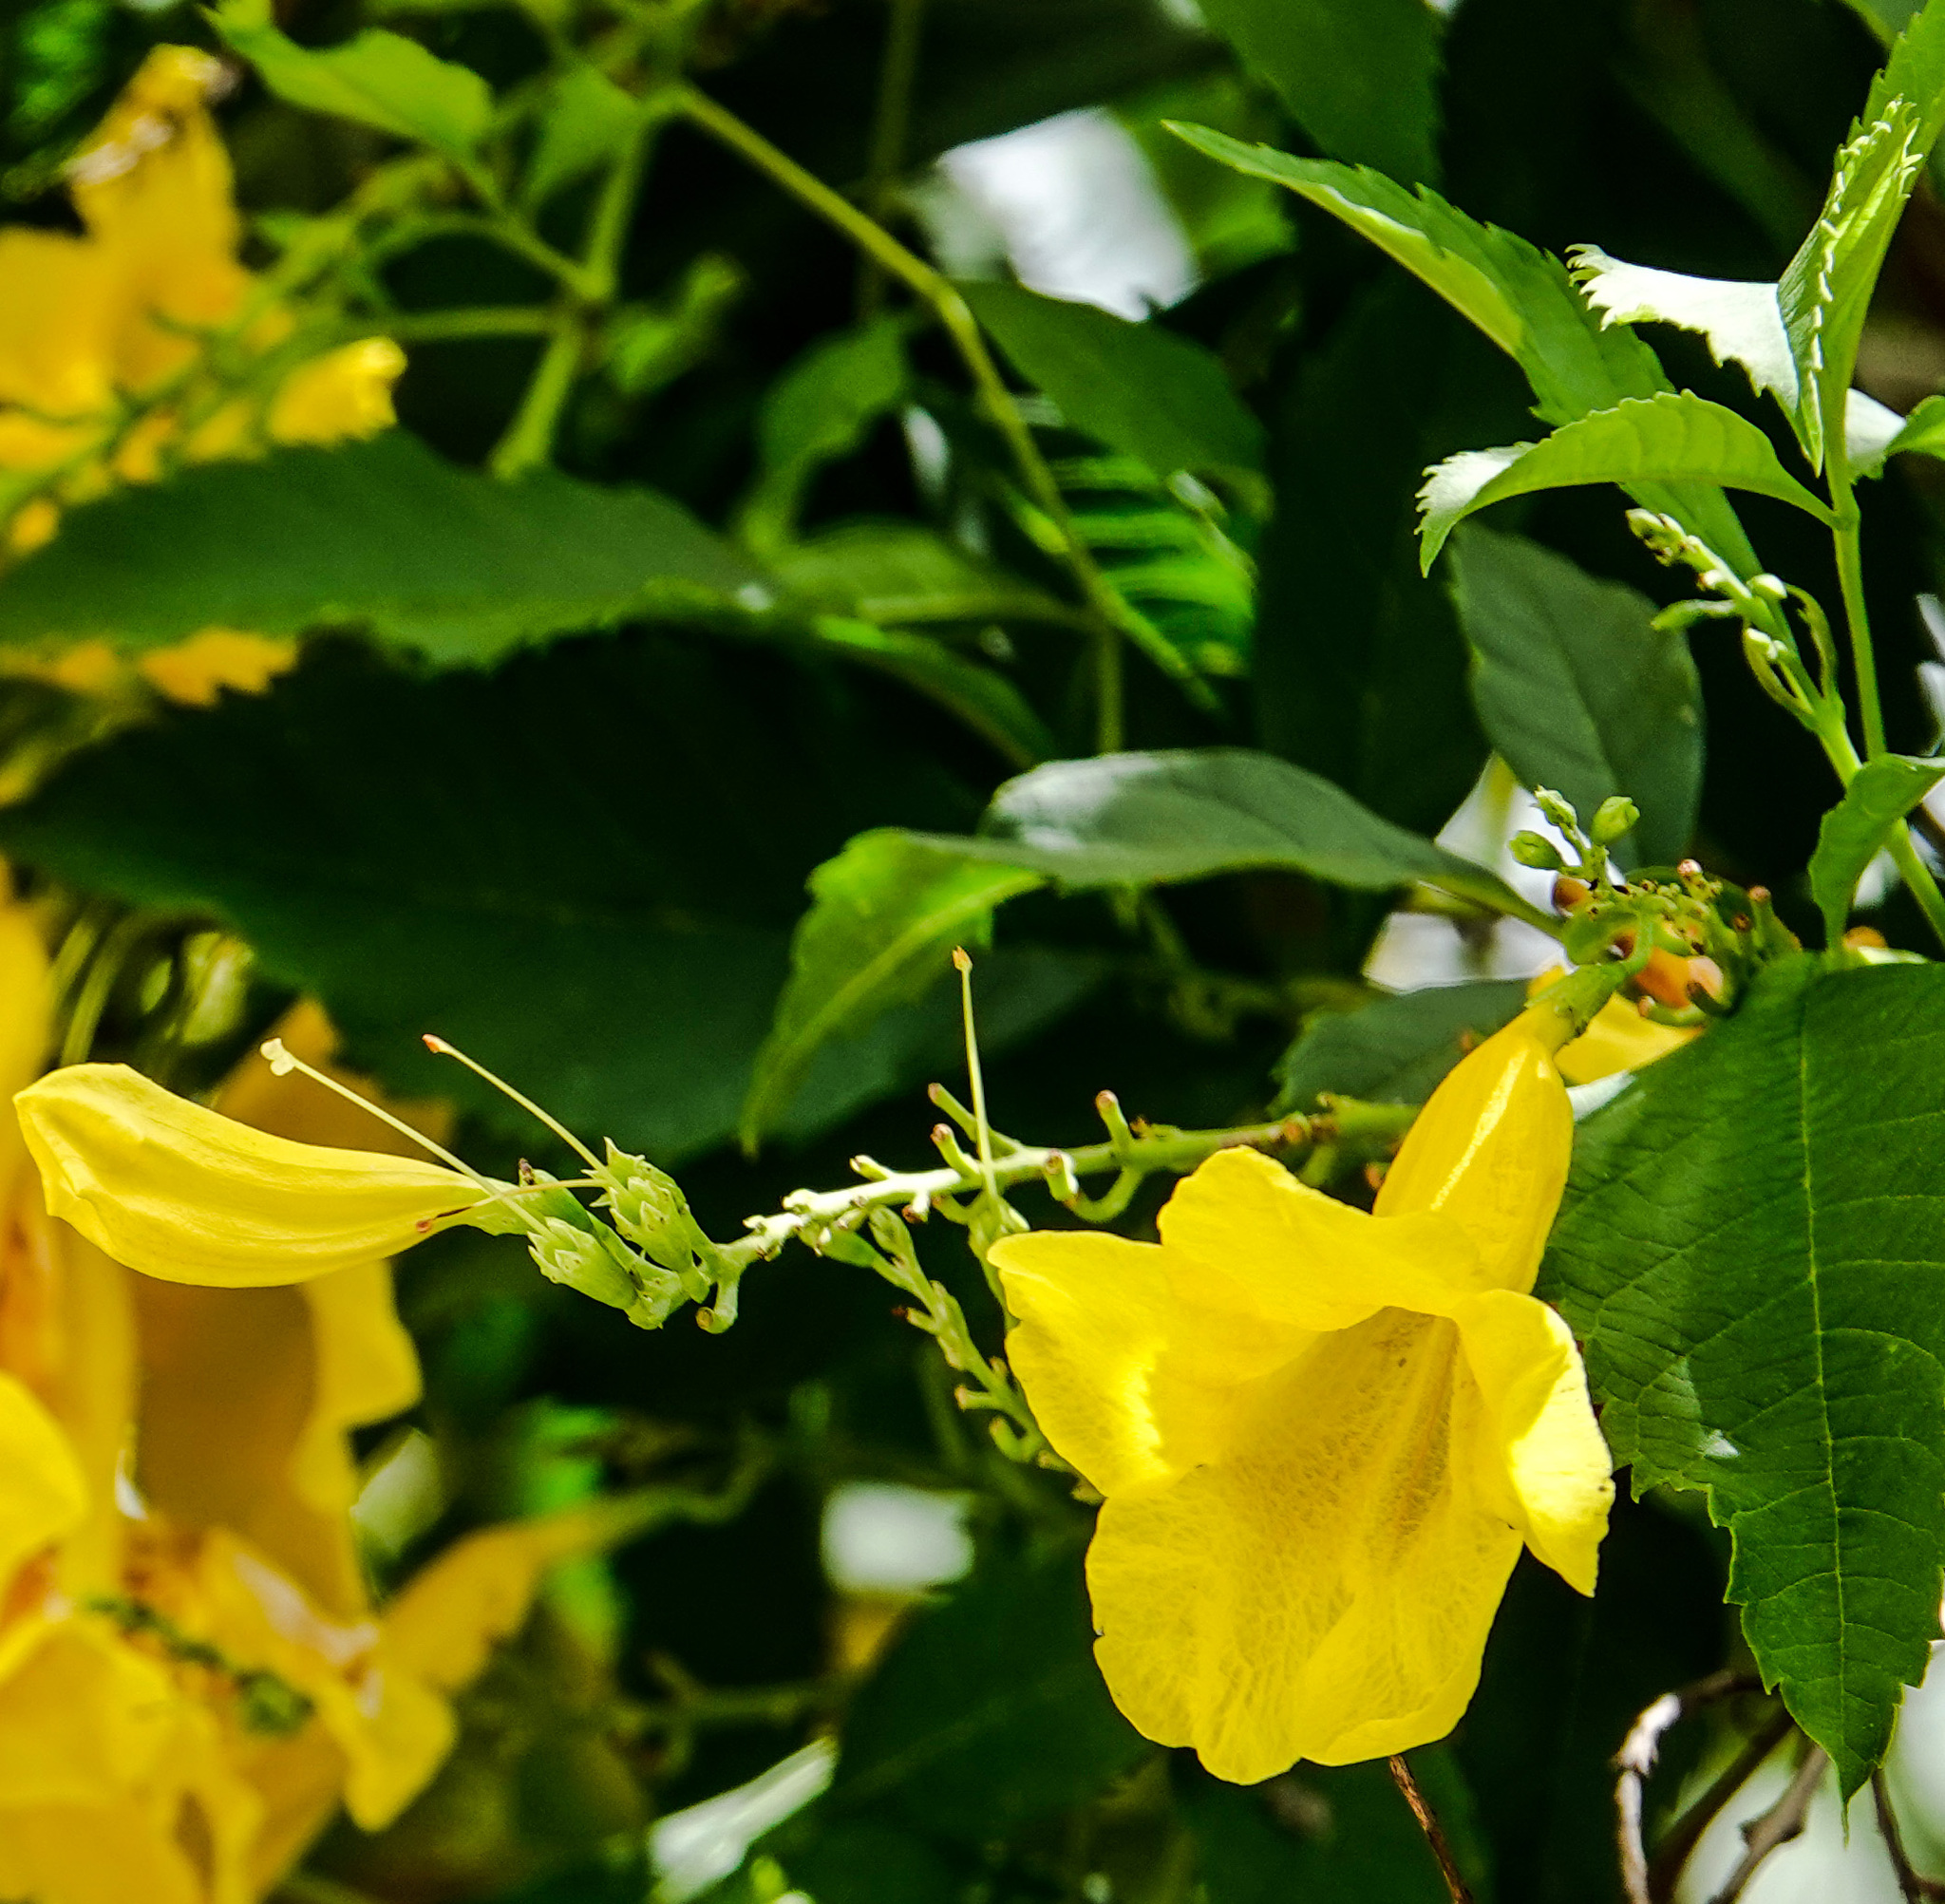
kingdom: Plantae
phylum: Tracheophyta
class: Magnoliopsida
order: Lamiales
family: Bignoniaceae
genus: Tecoma
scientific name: Tecoma stans
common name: Yellow trumpetbush
